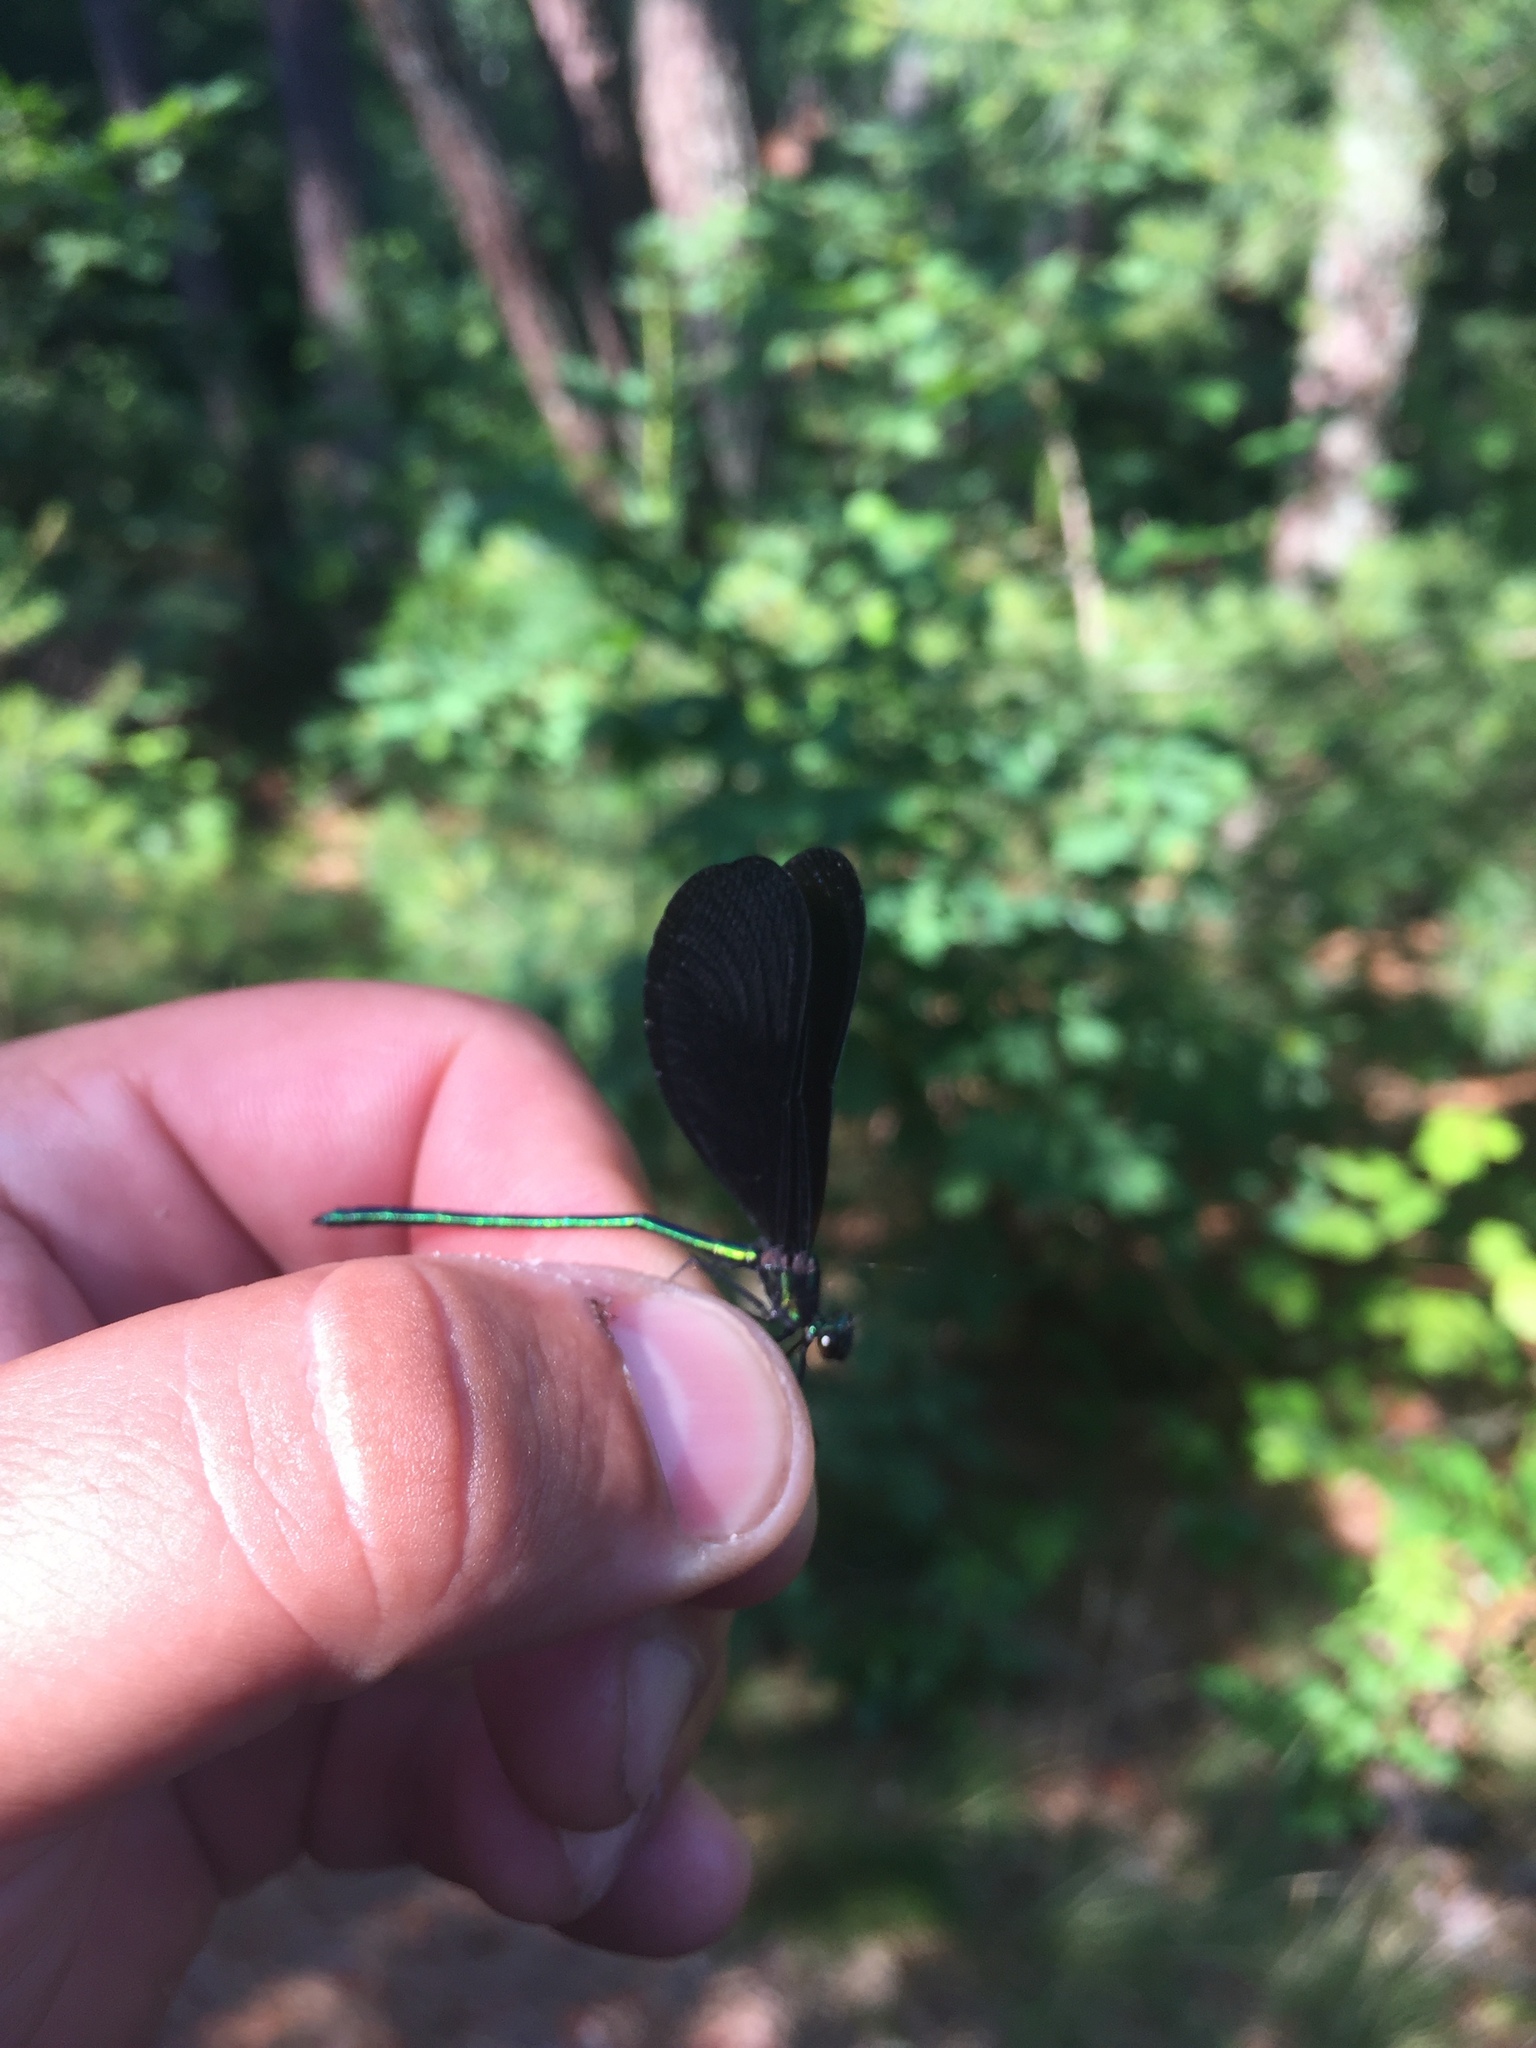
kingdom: Animalia
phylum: Arthropoda
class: Insecta
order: Odonata
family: Calopterygidae
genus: Calopteryx
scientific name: Calopteryx maculata
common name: Ebony jewelwing
